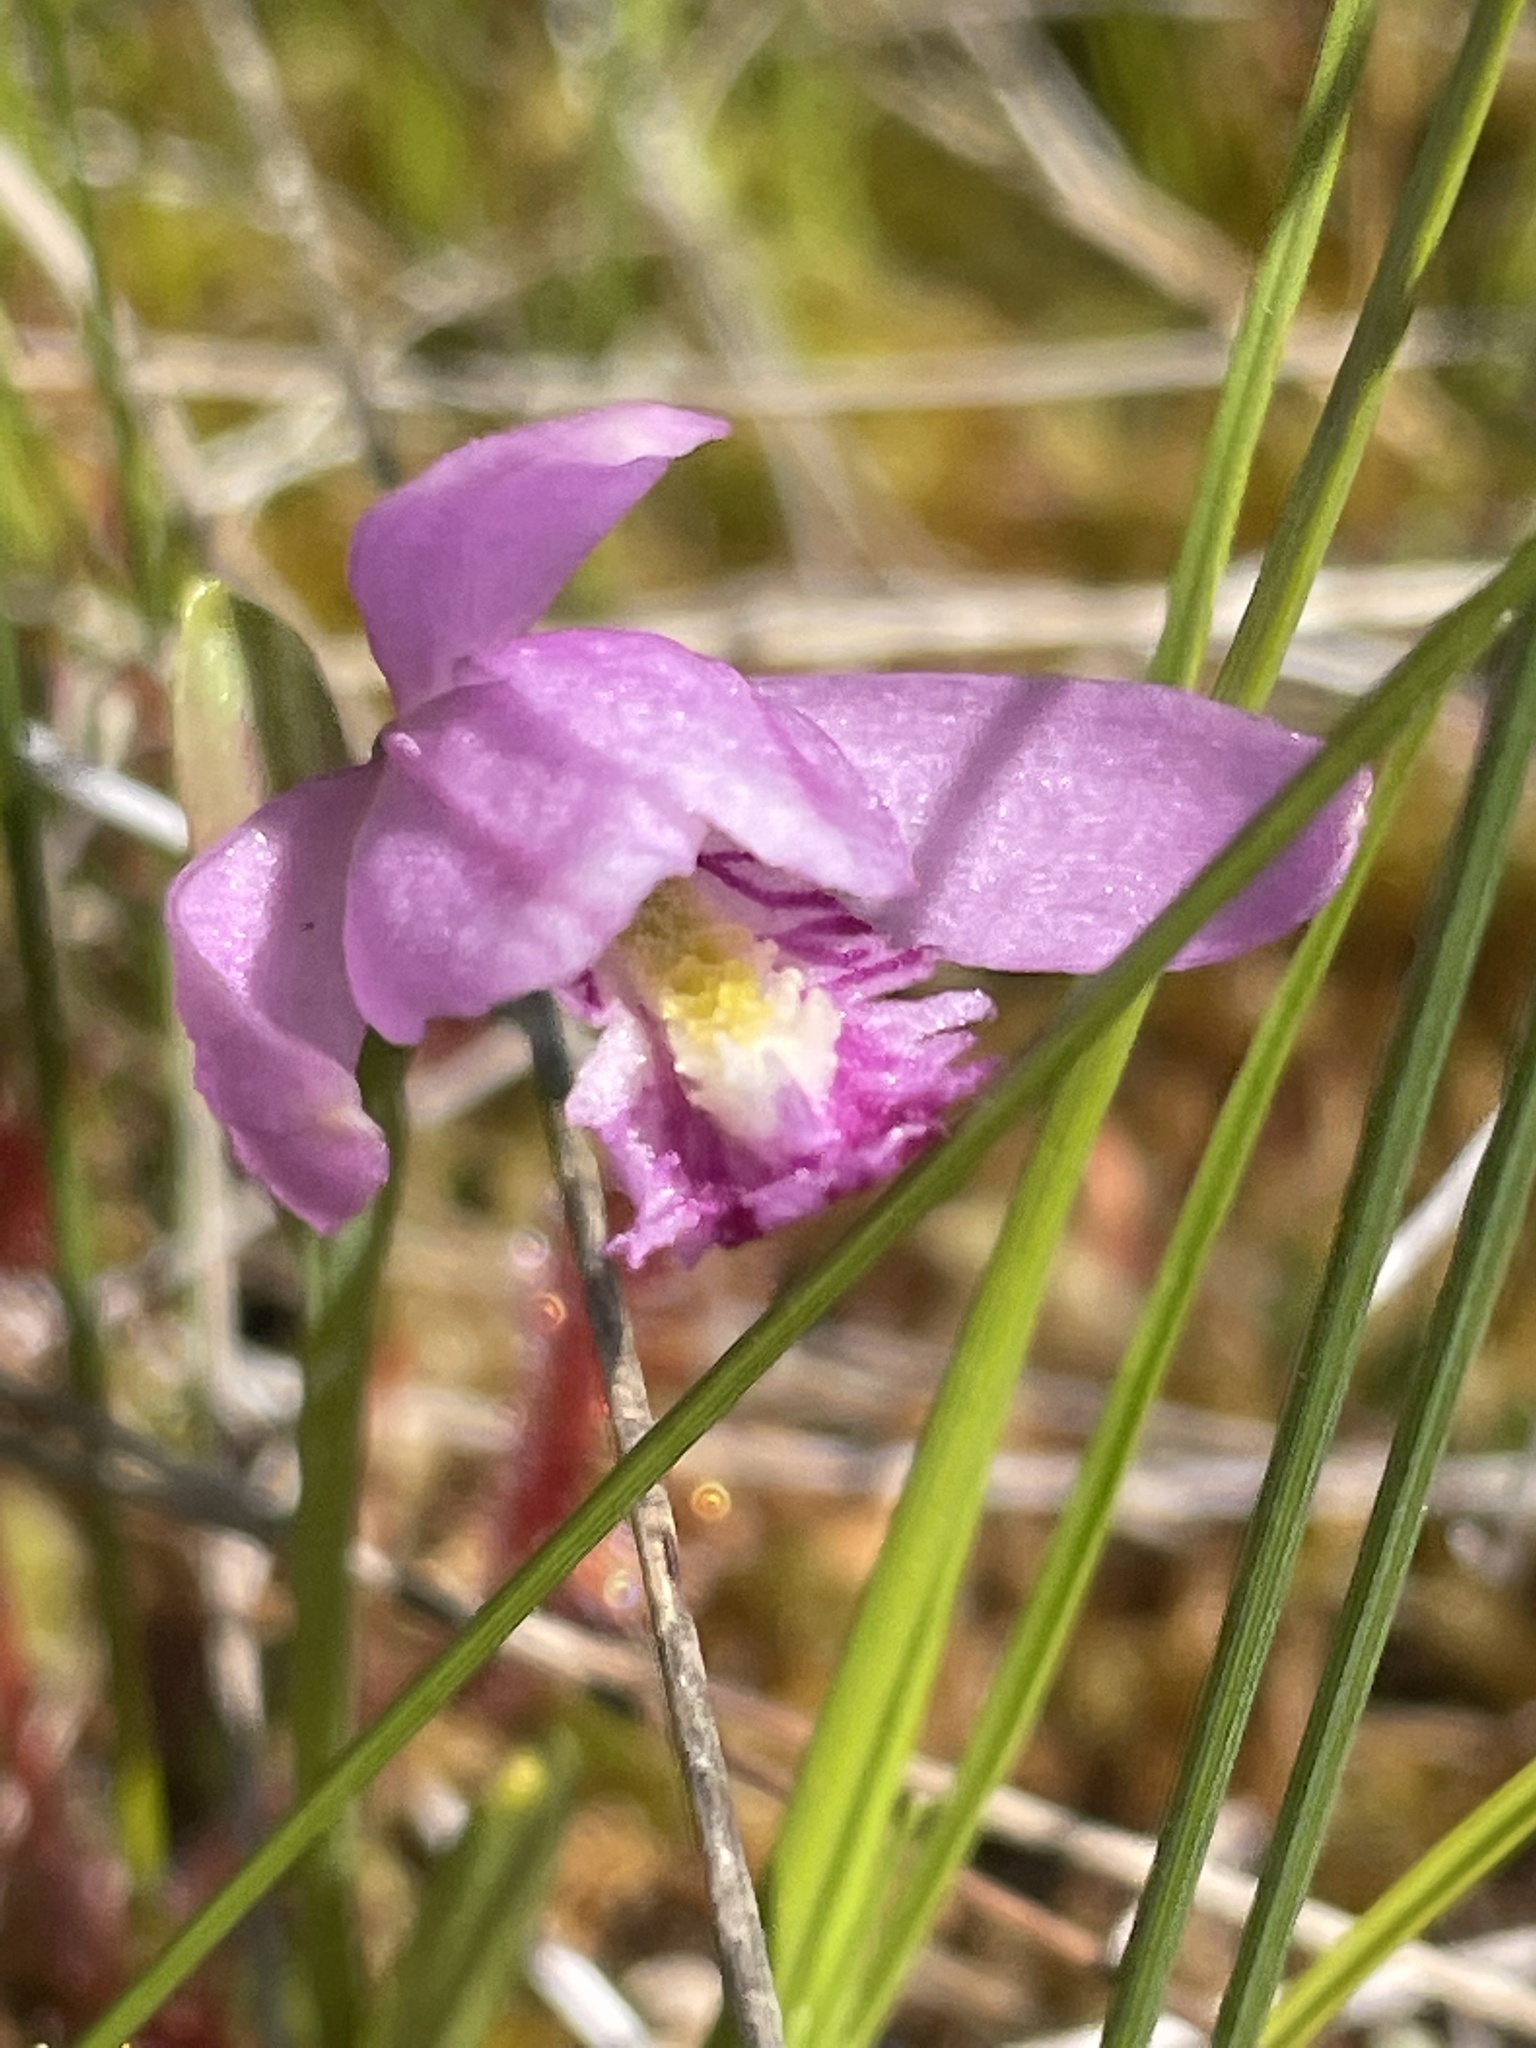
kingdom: Plantae
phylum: Tracheophyta
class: Liliopsida
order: Asparagales
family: Orchidaceae
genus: Pogonia
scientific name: Pogonia ophioglossoides
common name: Rose pogonia
